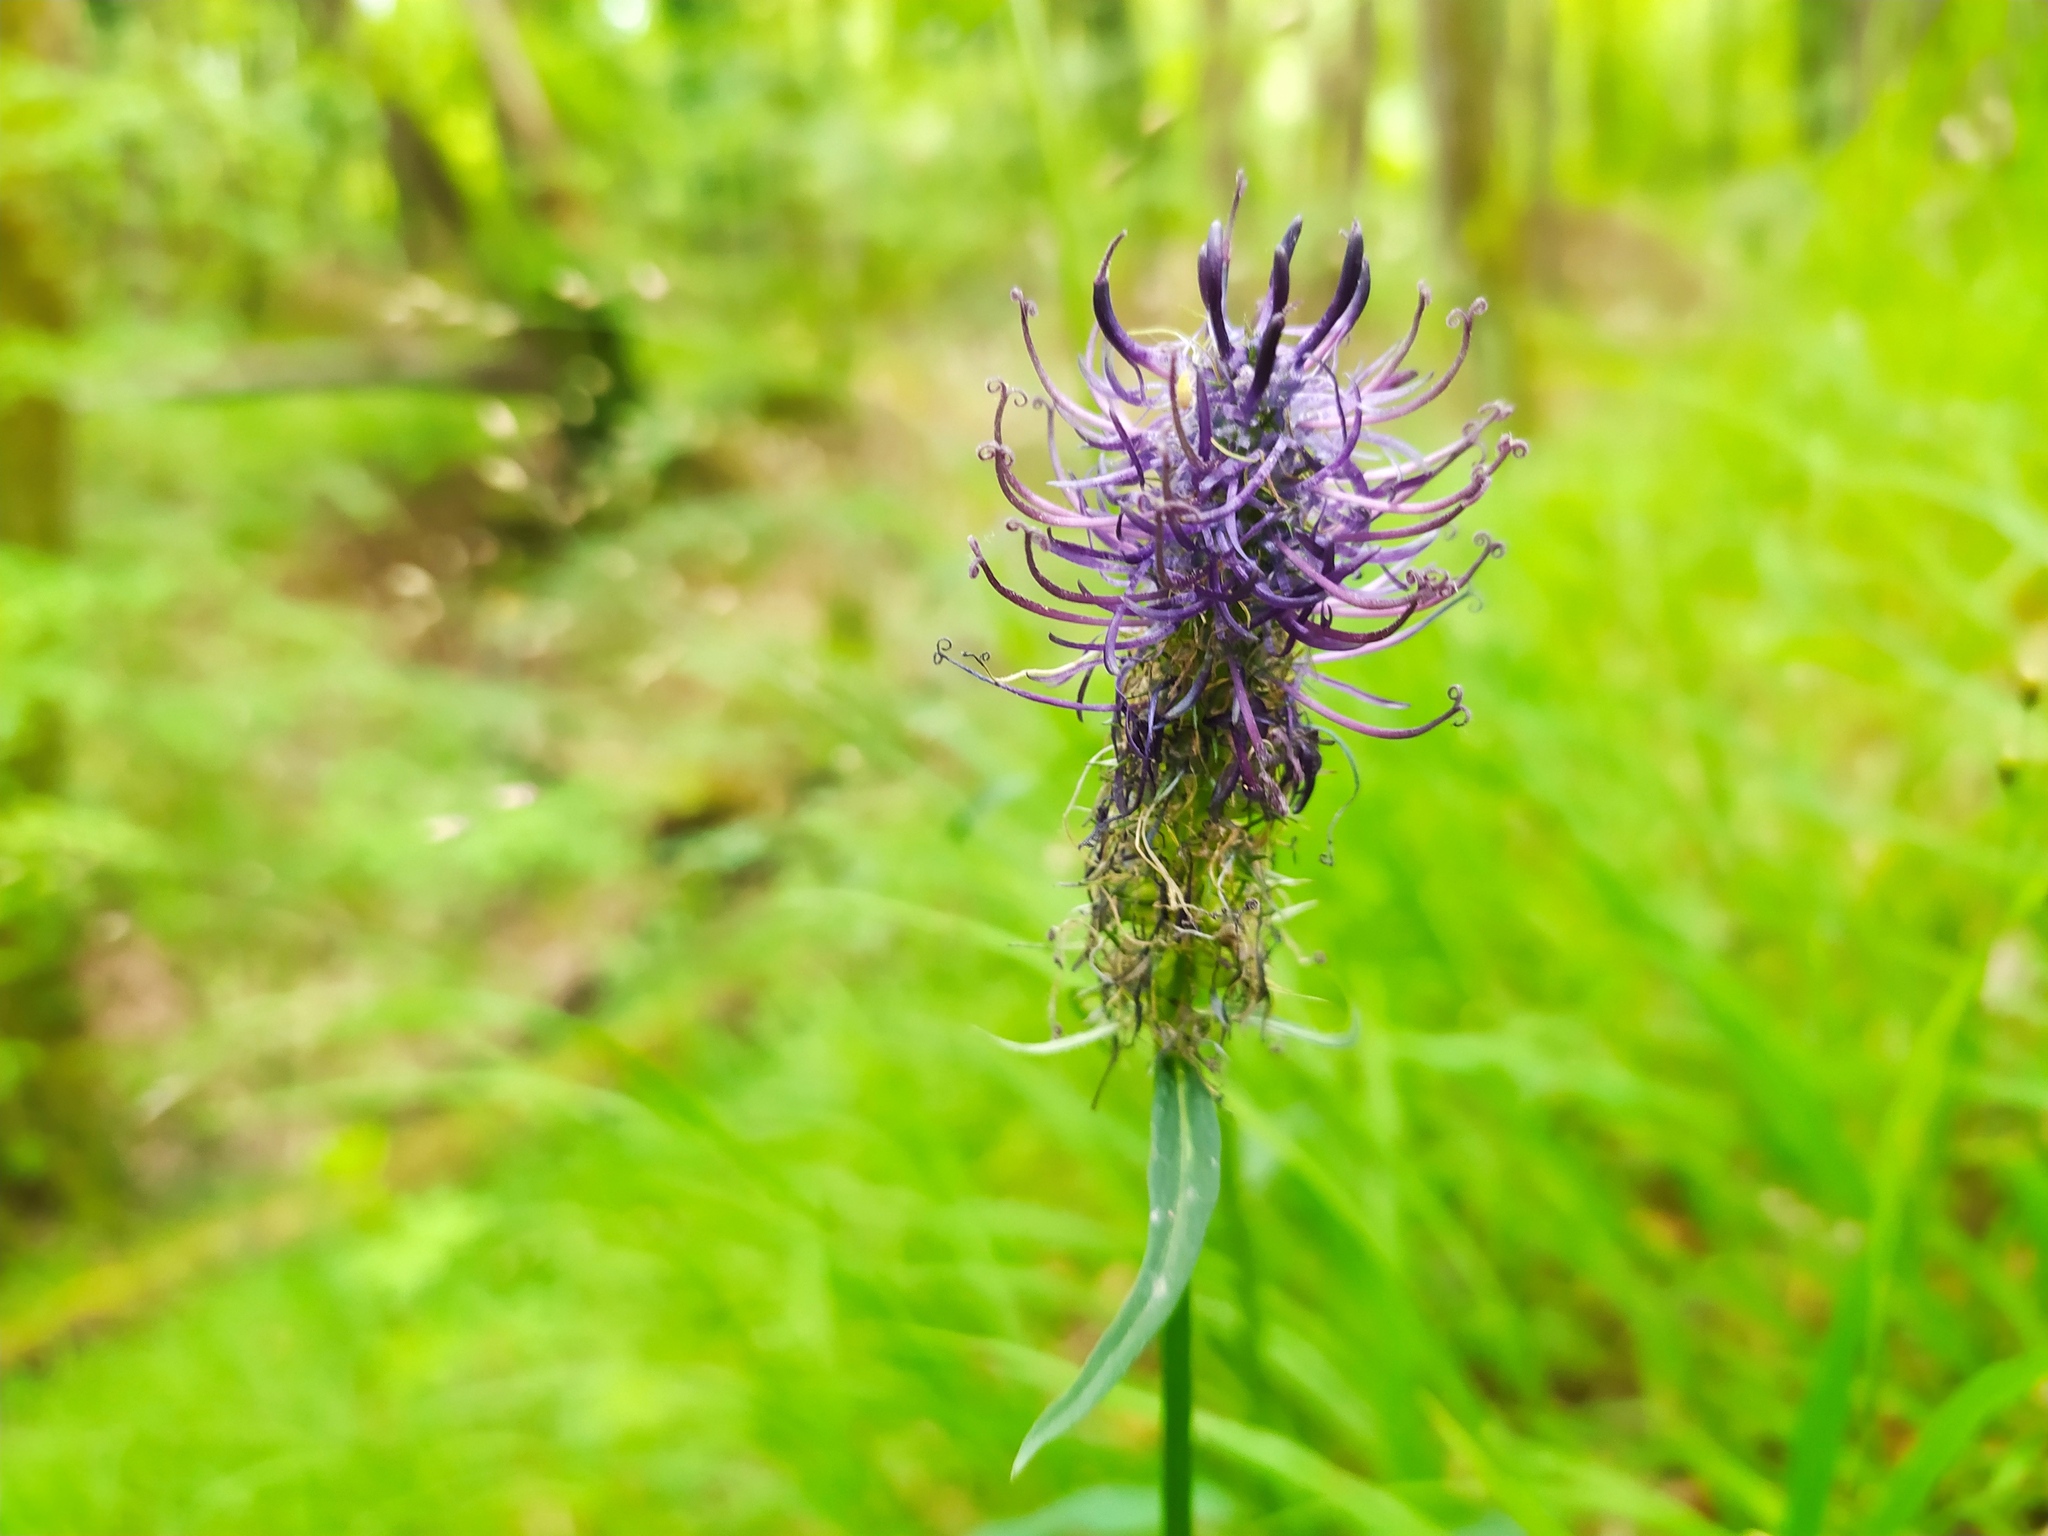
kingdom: Plantae
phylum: Tracheophyta
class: Magnoliopsida
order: Asterales
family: Campanulaceae
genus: Phyteuma
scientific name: Phyteuma nigrum
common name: Black rampion
